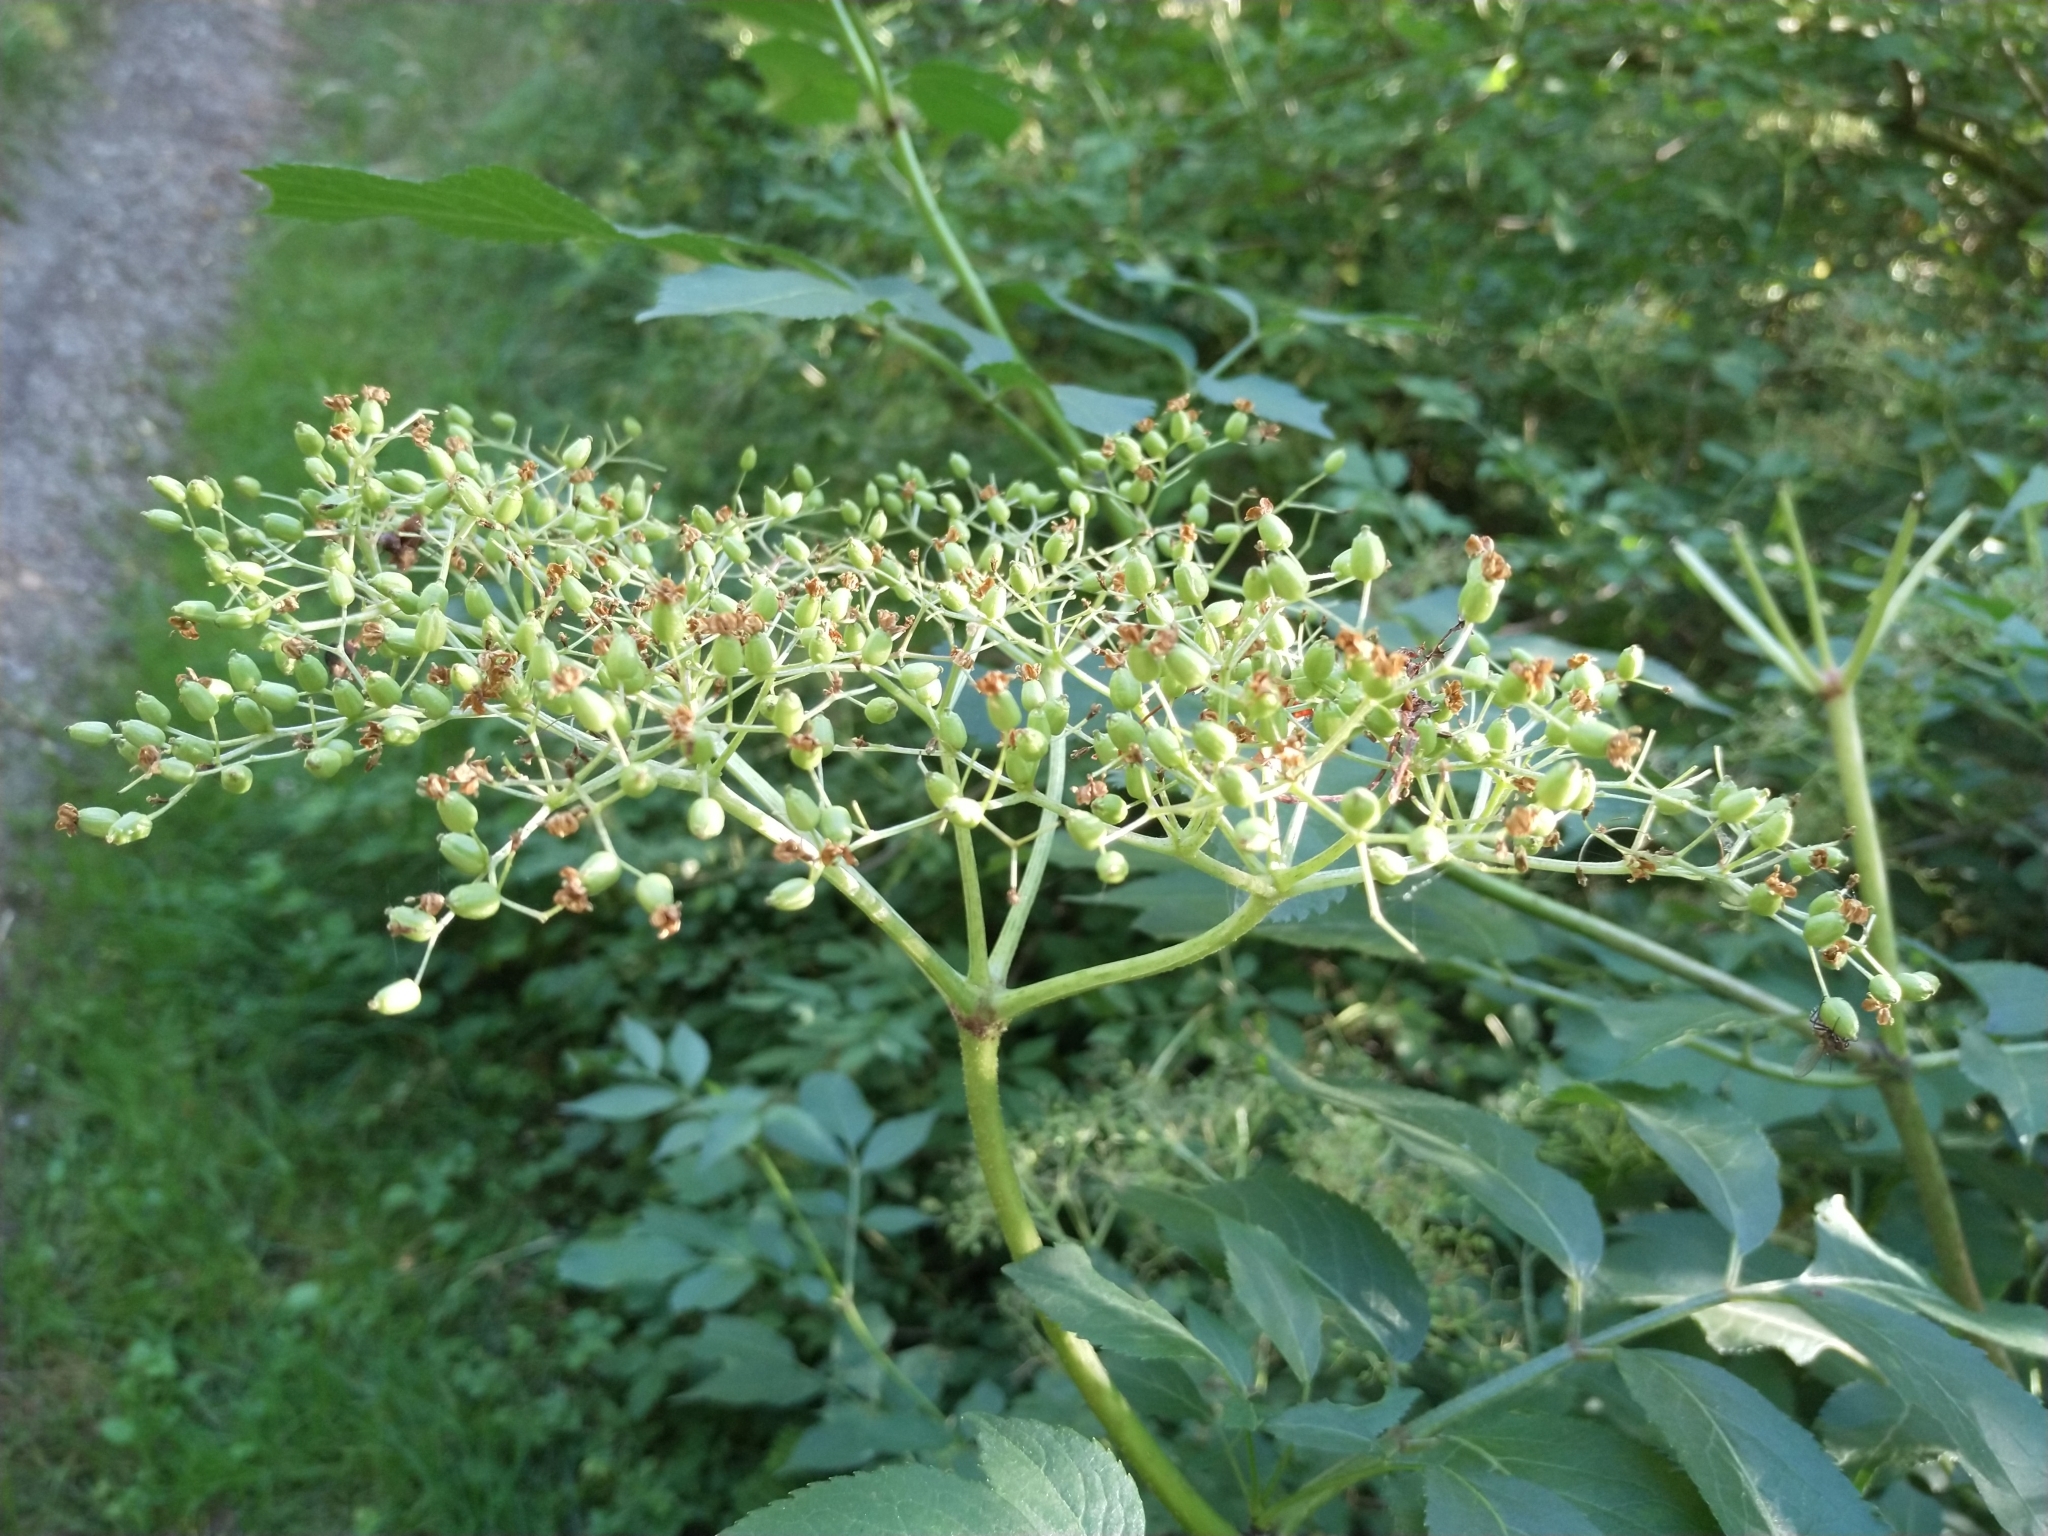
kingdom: Plantae
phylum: Tracheophyta
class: Magnoliopsida
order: Dipsacales
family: Viburnaceae
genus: Sambucus
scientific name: Sambucus nigra
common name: Elder
